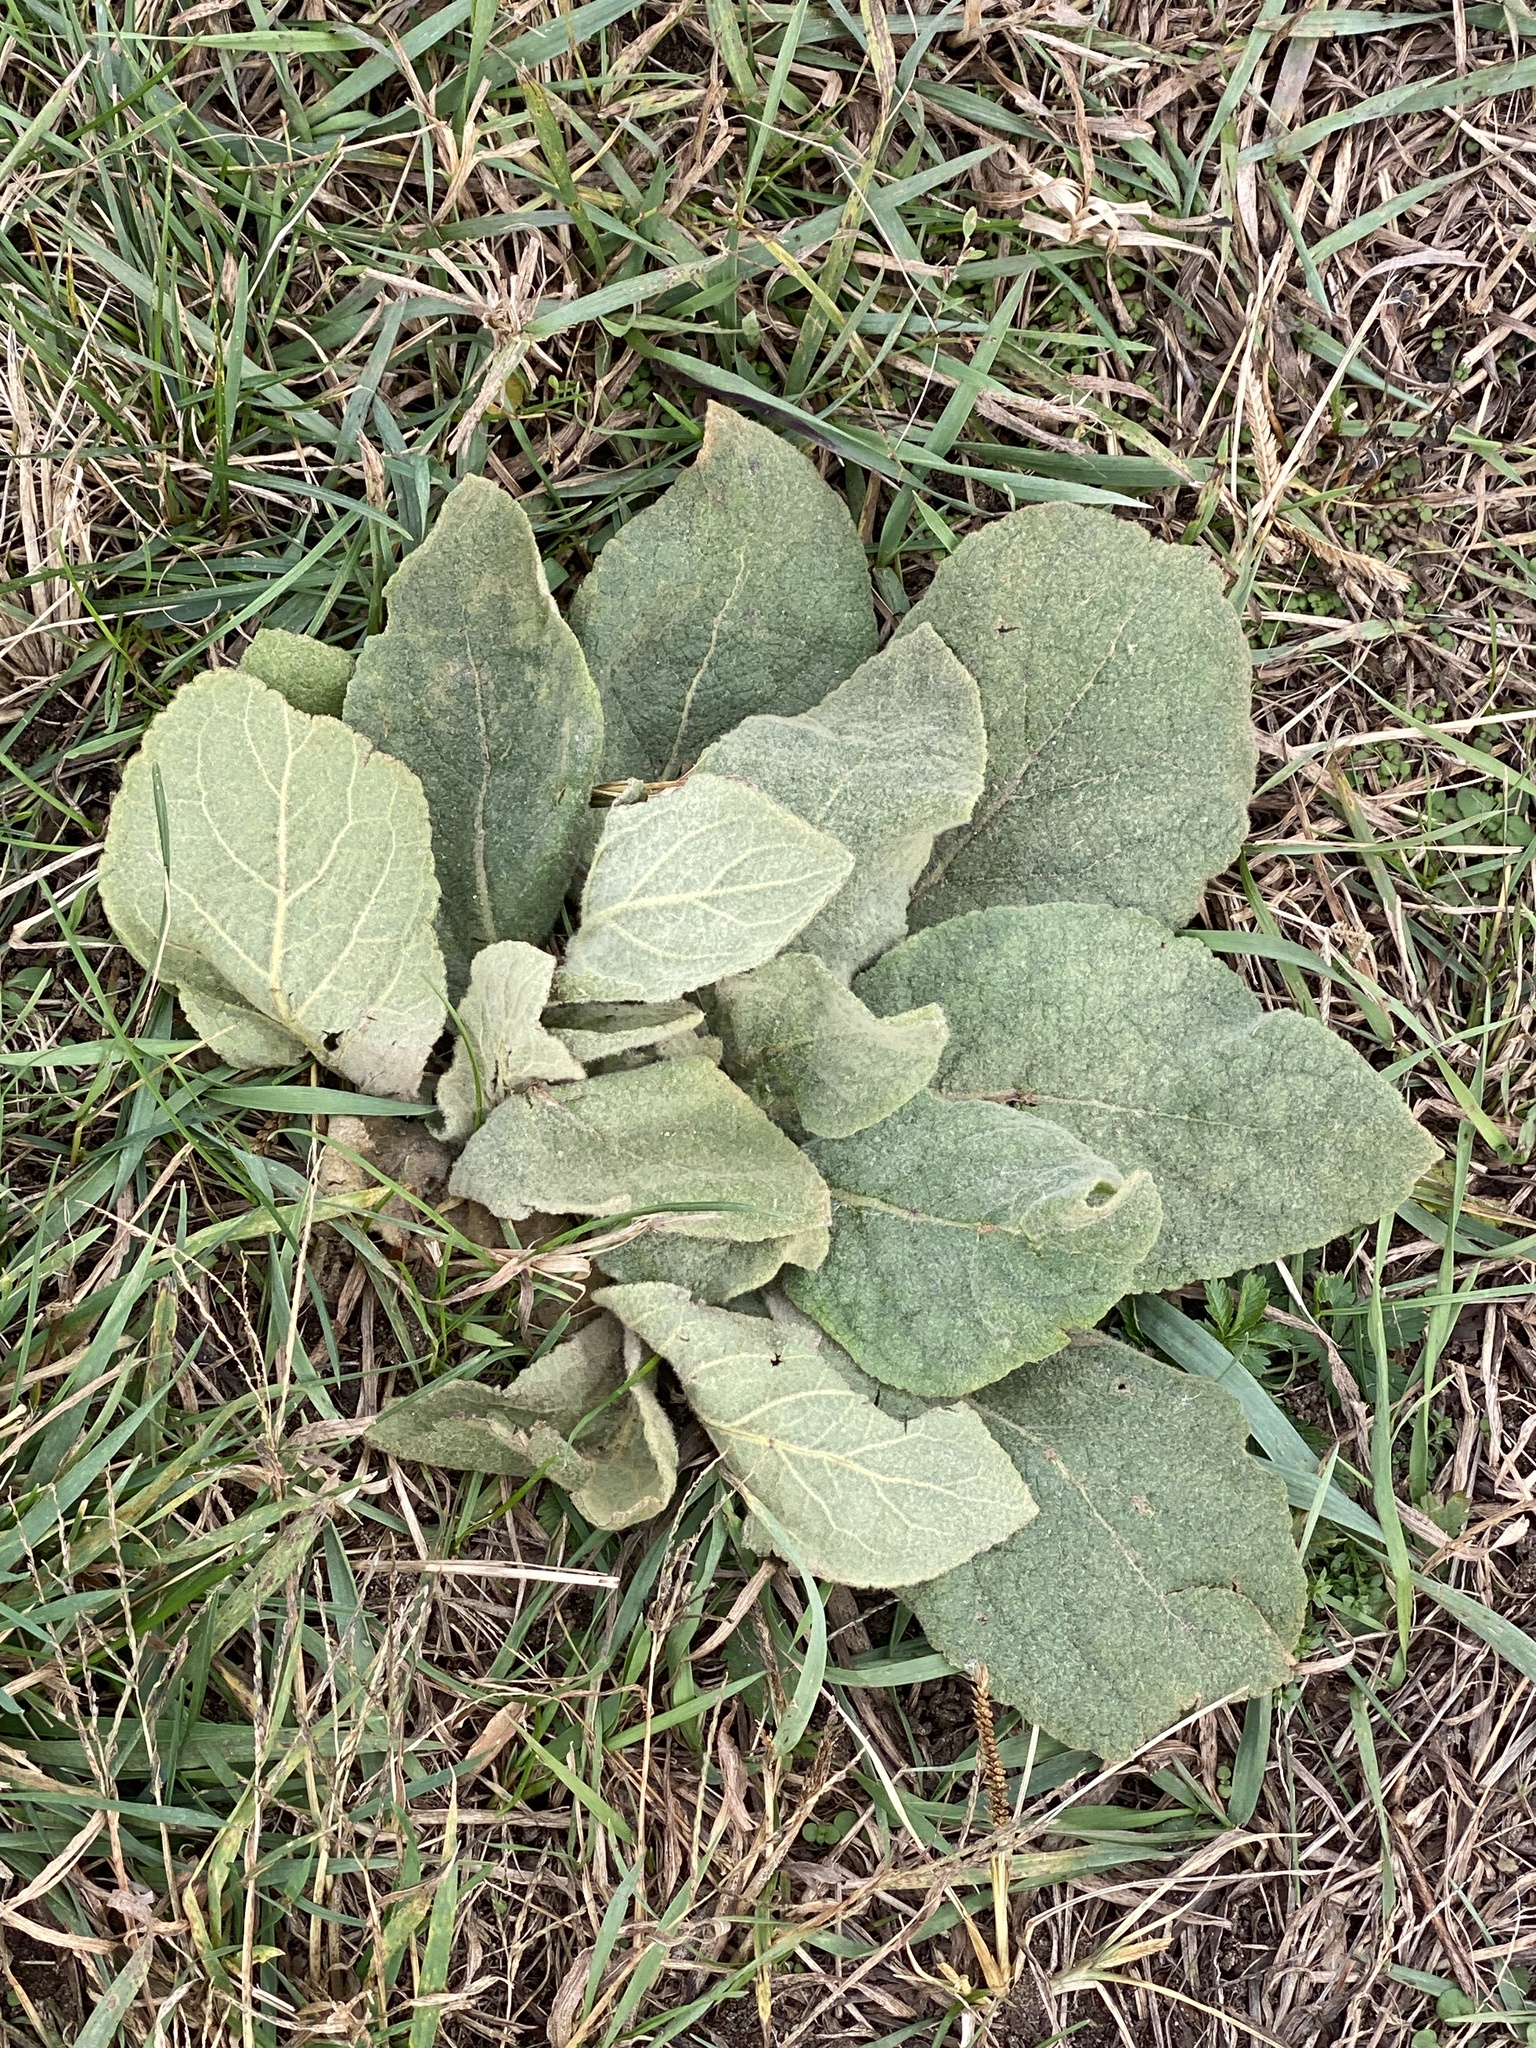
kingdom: Plantae
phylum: Tracheophyta
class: Magnoliopsida
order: Lamiales
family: Scrophulariaceae
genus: Verbascum
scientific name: Verbascum thapsus
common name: Common mullein
